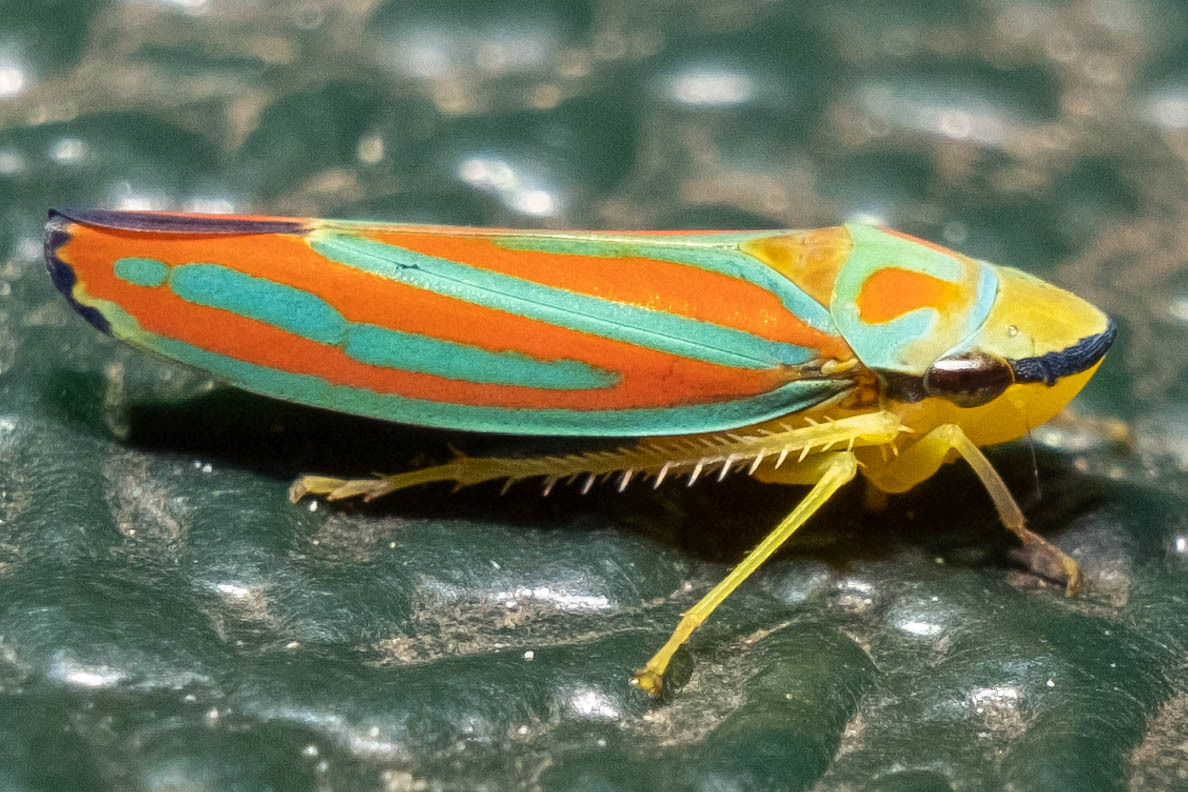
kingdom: Animalia
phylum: Arthropoda
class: Insecta
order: Hemiptera
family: Cicadellidae
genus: Graphocephala
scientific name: Graphocephala coccinea
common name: Candy-striped leafhopper
